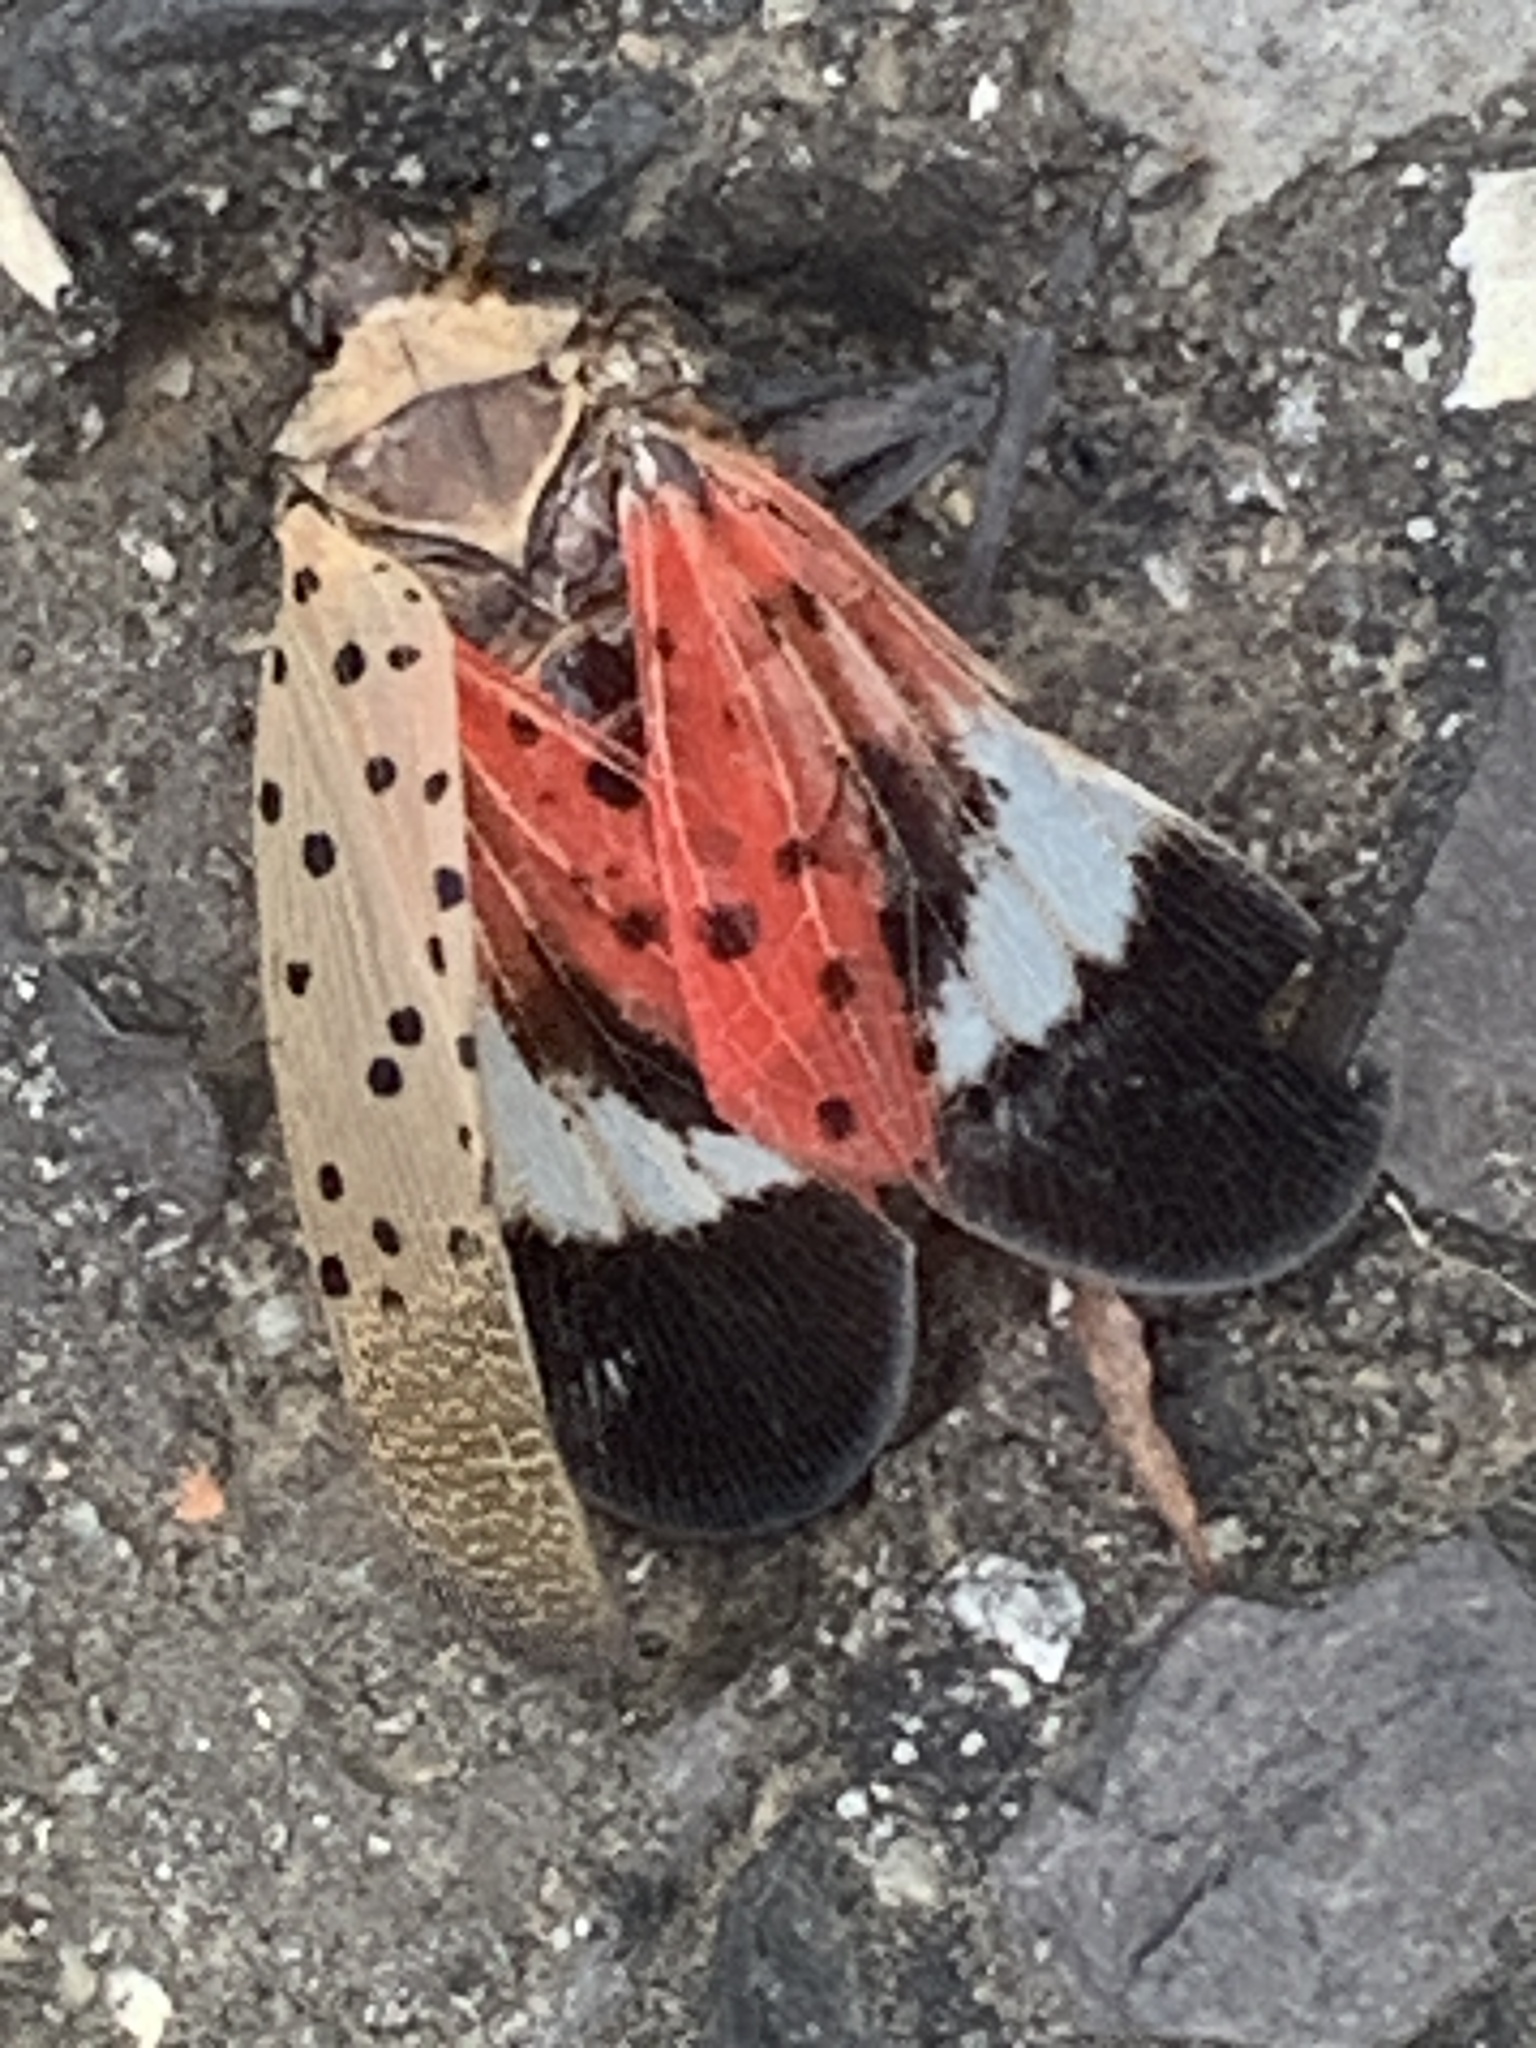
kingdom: Animalia
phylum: Arthropoda
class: Insecta
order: Hemiptera
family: Fulgoridae
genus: Lycorma
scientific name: Lycorma delicatula
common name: Spotted lanternfly
